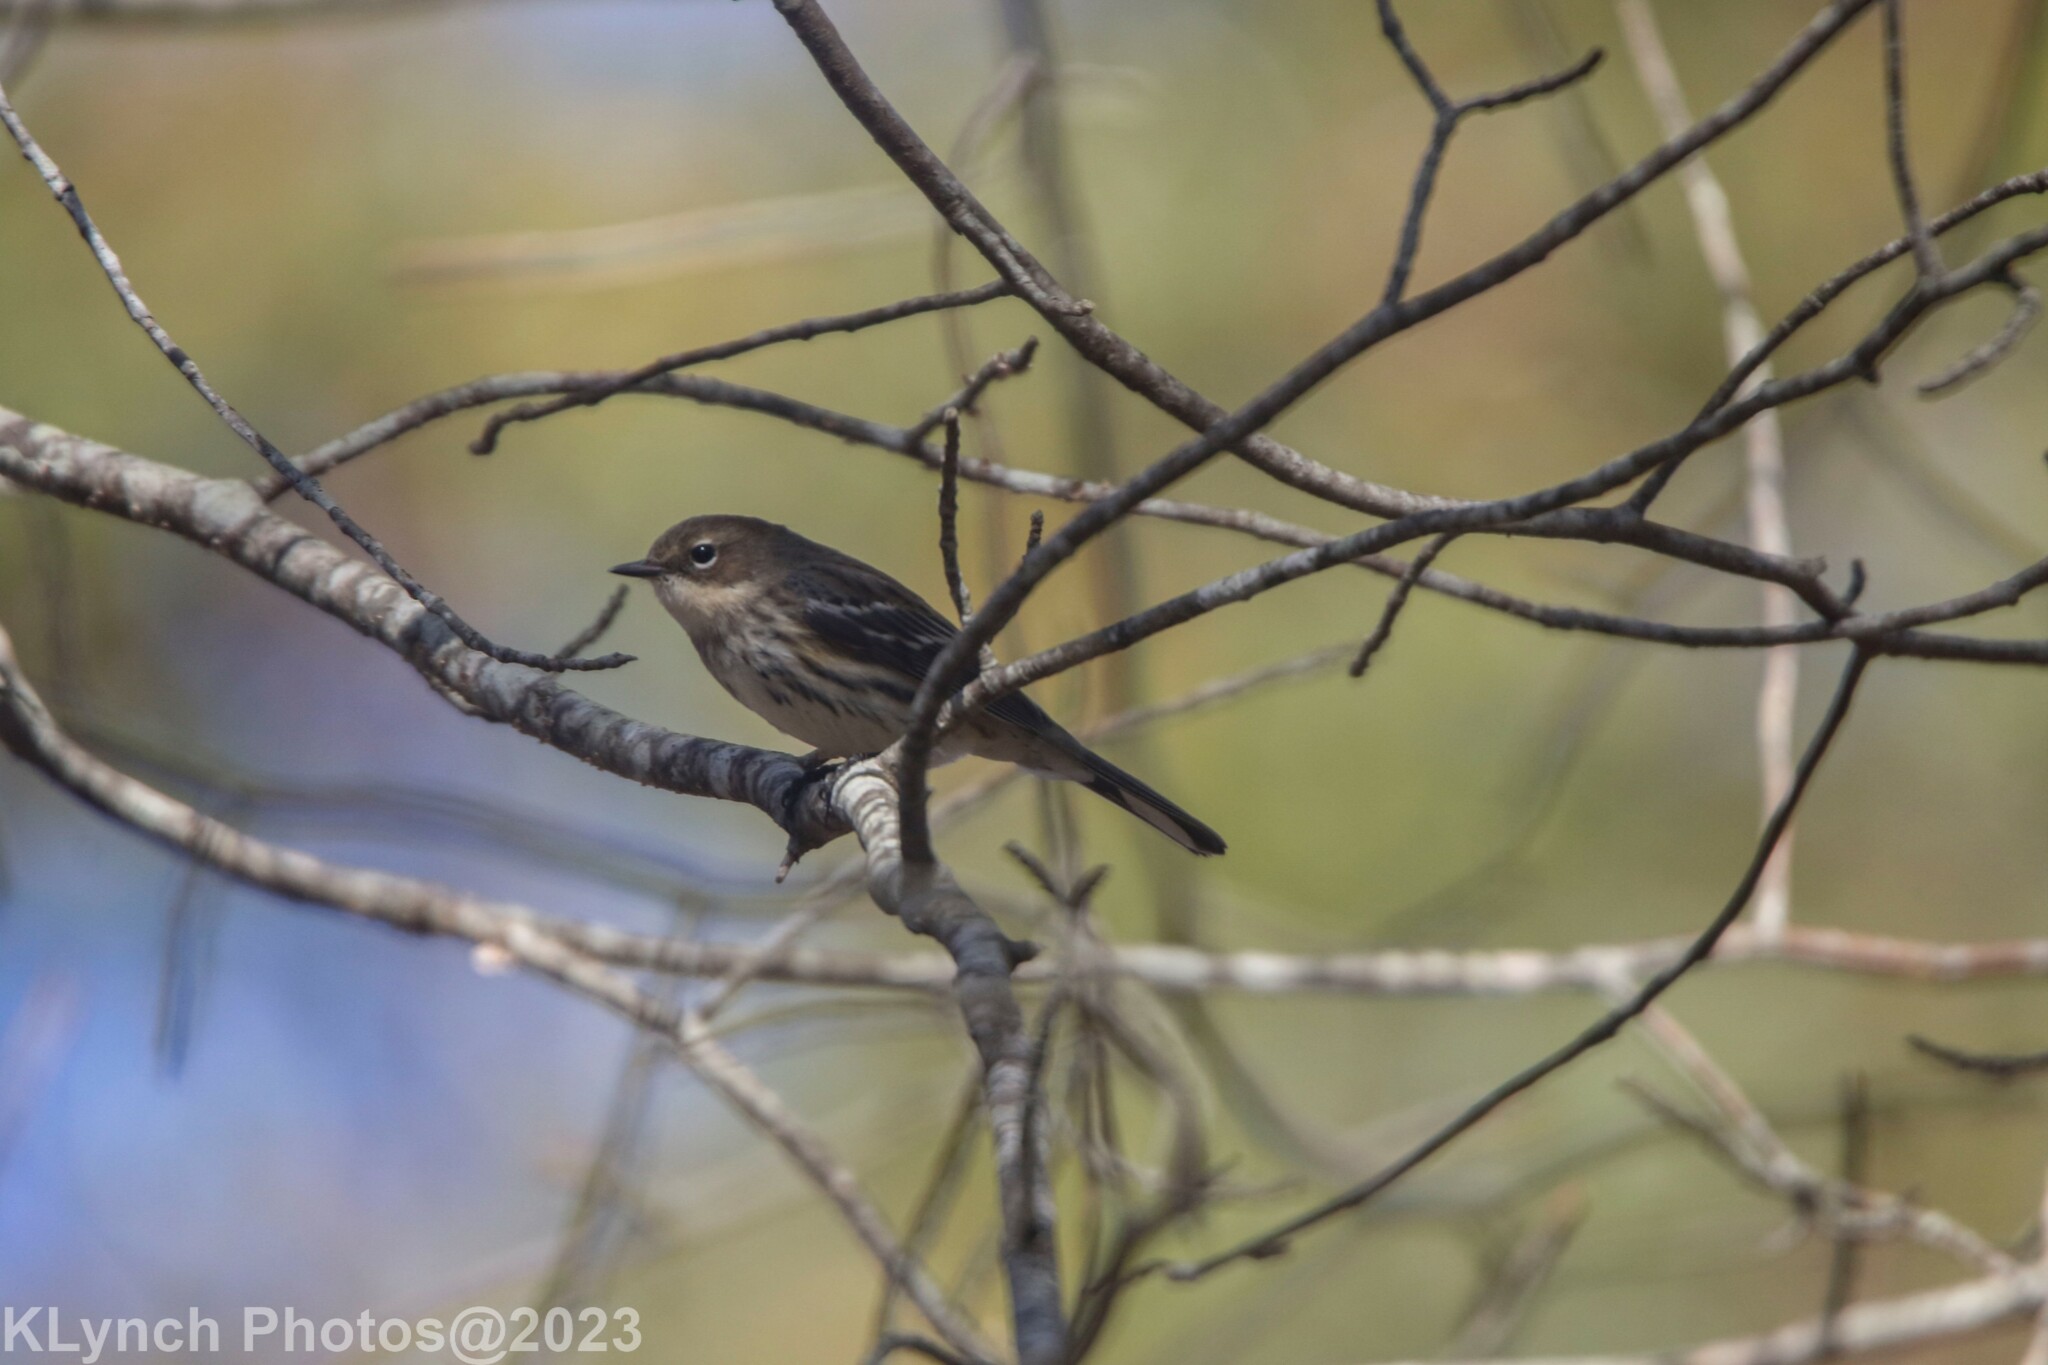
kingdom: Animalia
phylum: Chordata
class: Aves
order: Passeriformes
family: Parulidae
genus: Setophaga
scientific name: Setophaga coronata
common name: Myrtle warbler
